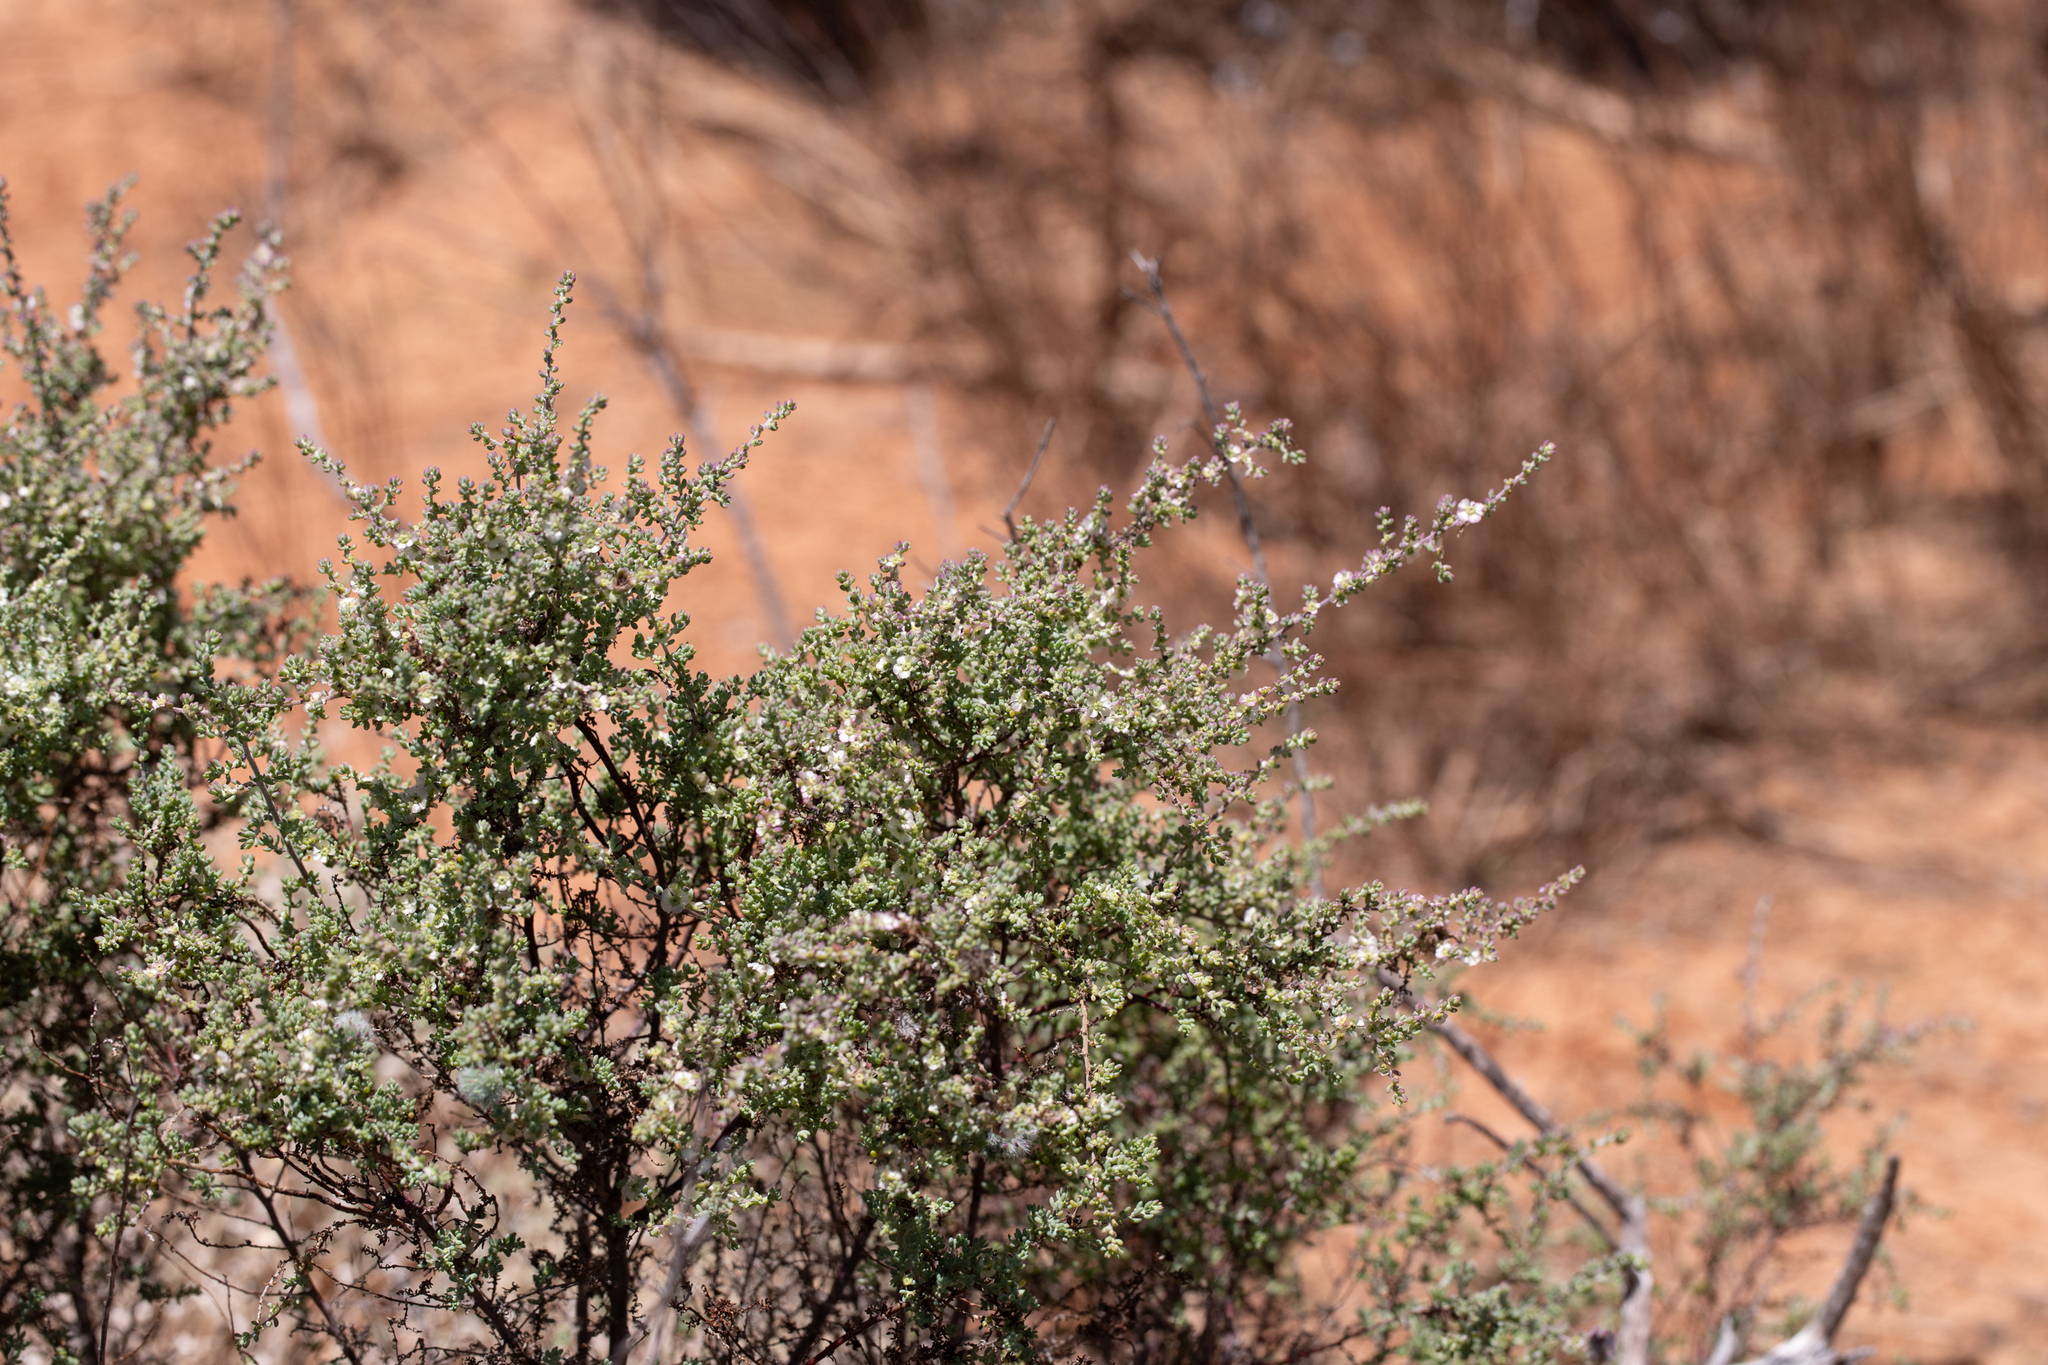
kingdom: Plantae
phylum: Tracheophyta
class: Magnoliopsida
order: Caryophyllales
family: Amaranthaceae
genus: Maireana
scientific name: Maireana brevifolia
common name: Eastern cottonbush
